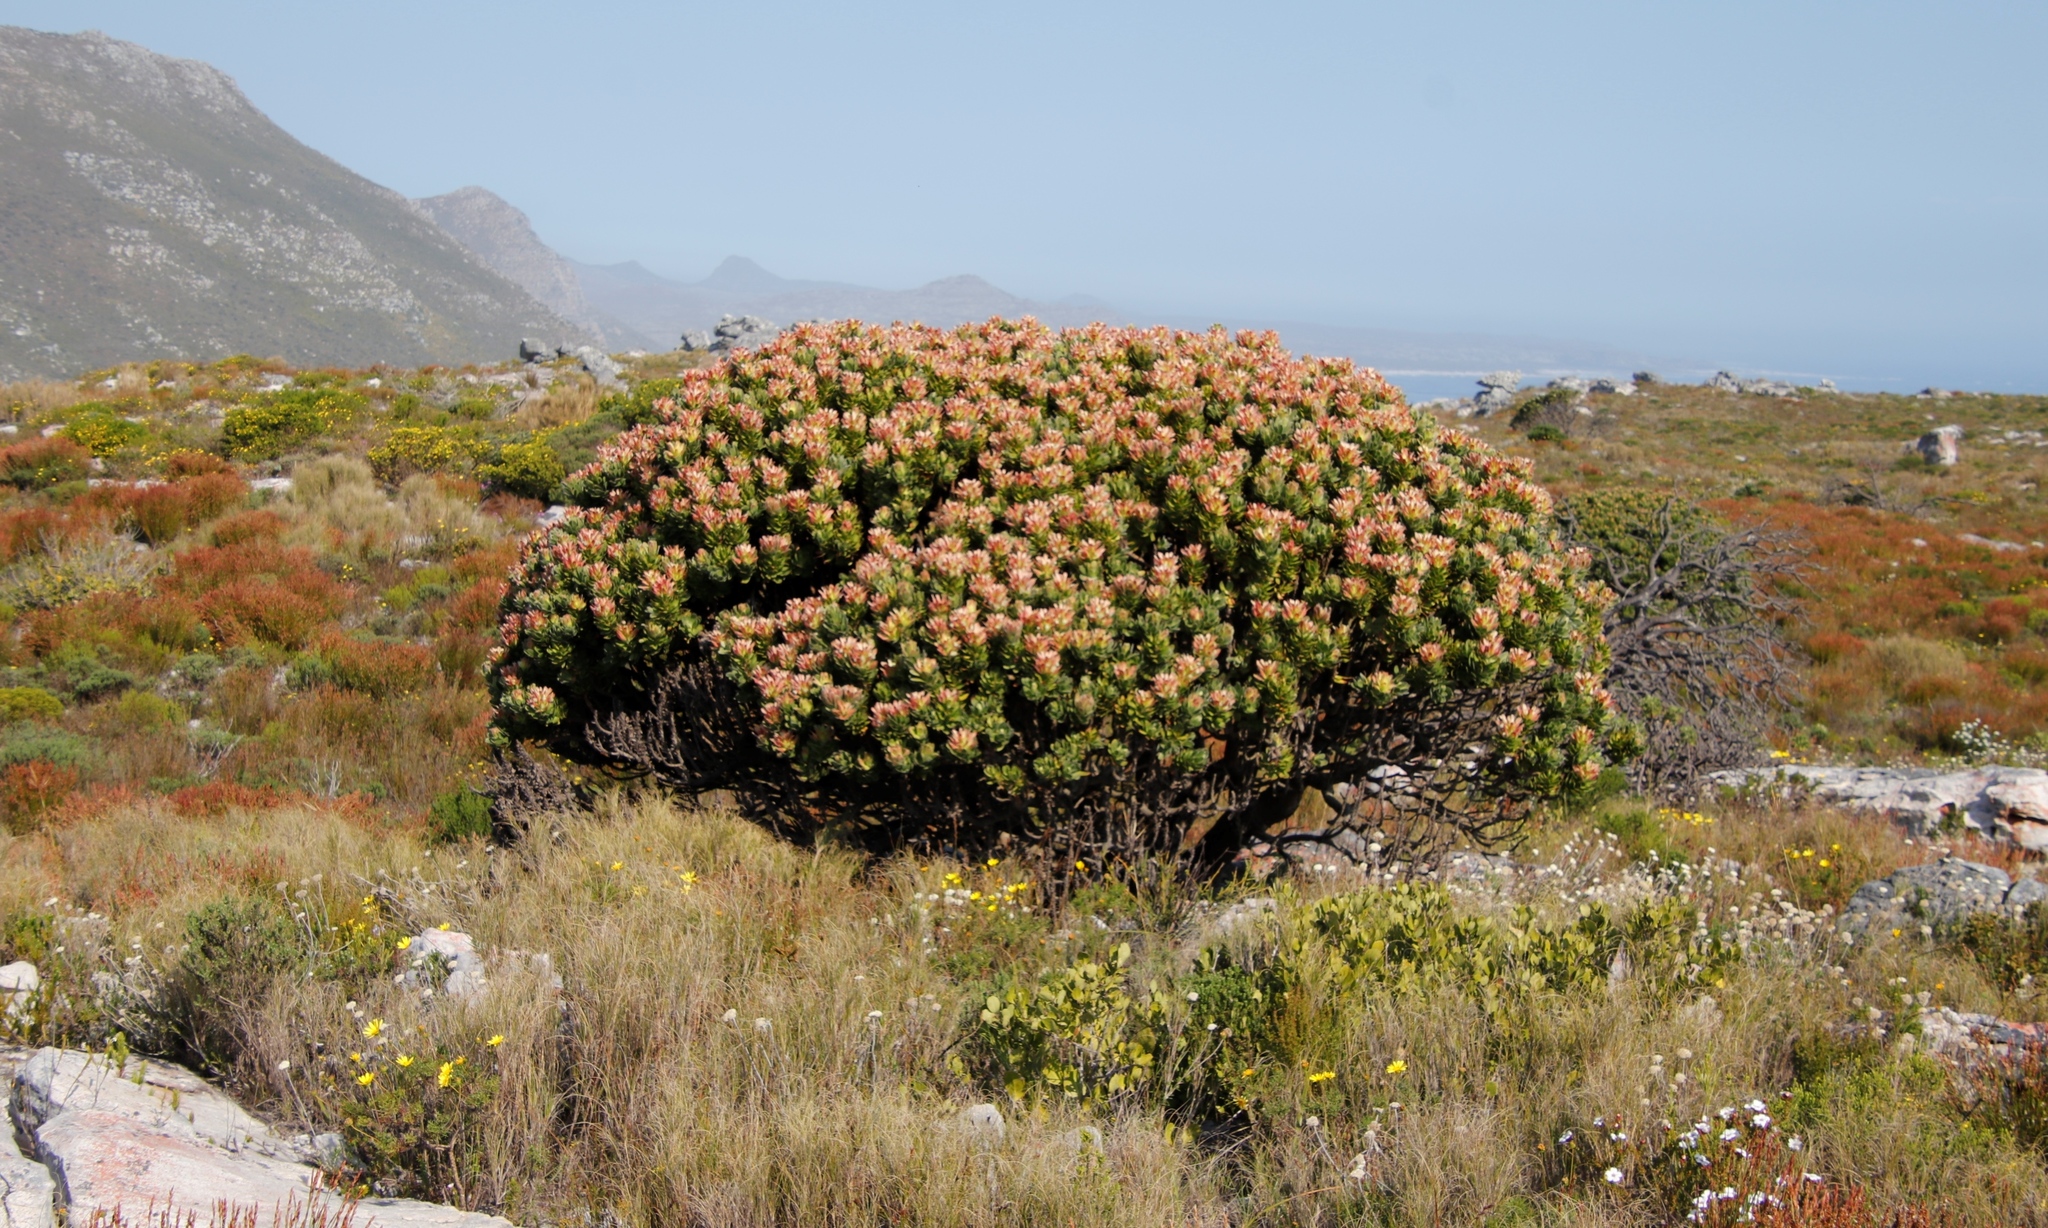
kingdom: Plantae
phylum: Tracheophyta
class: Magnoliopsida
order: Proteales
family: Proteaceae
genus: Mimetes
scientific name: Mimetes fimbriifolius
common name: Fringed bottlebrush
